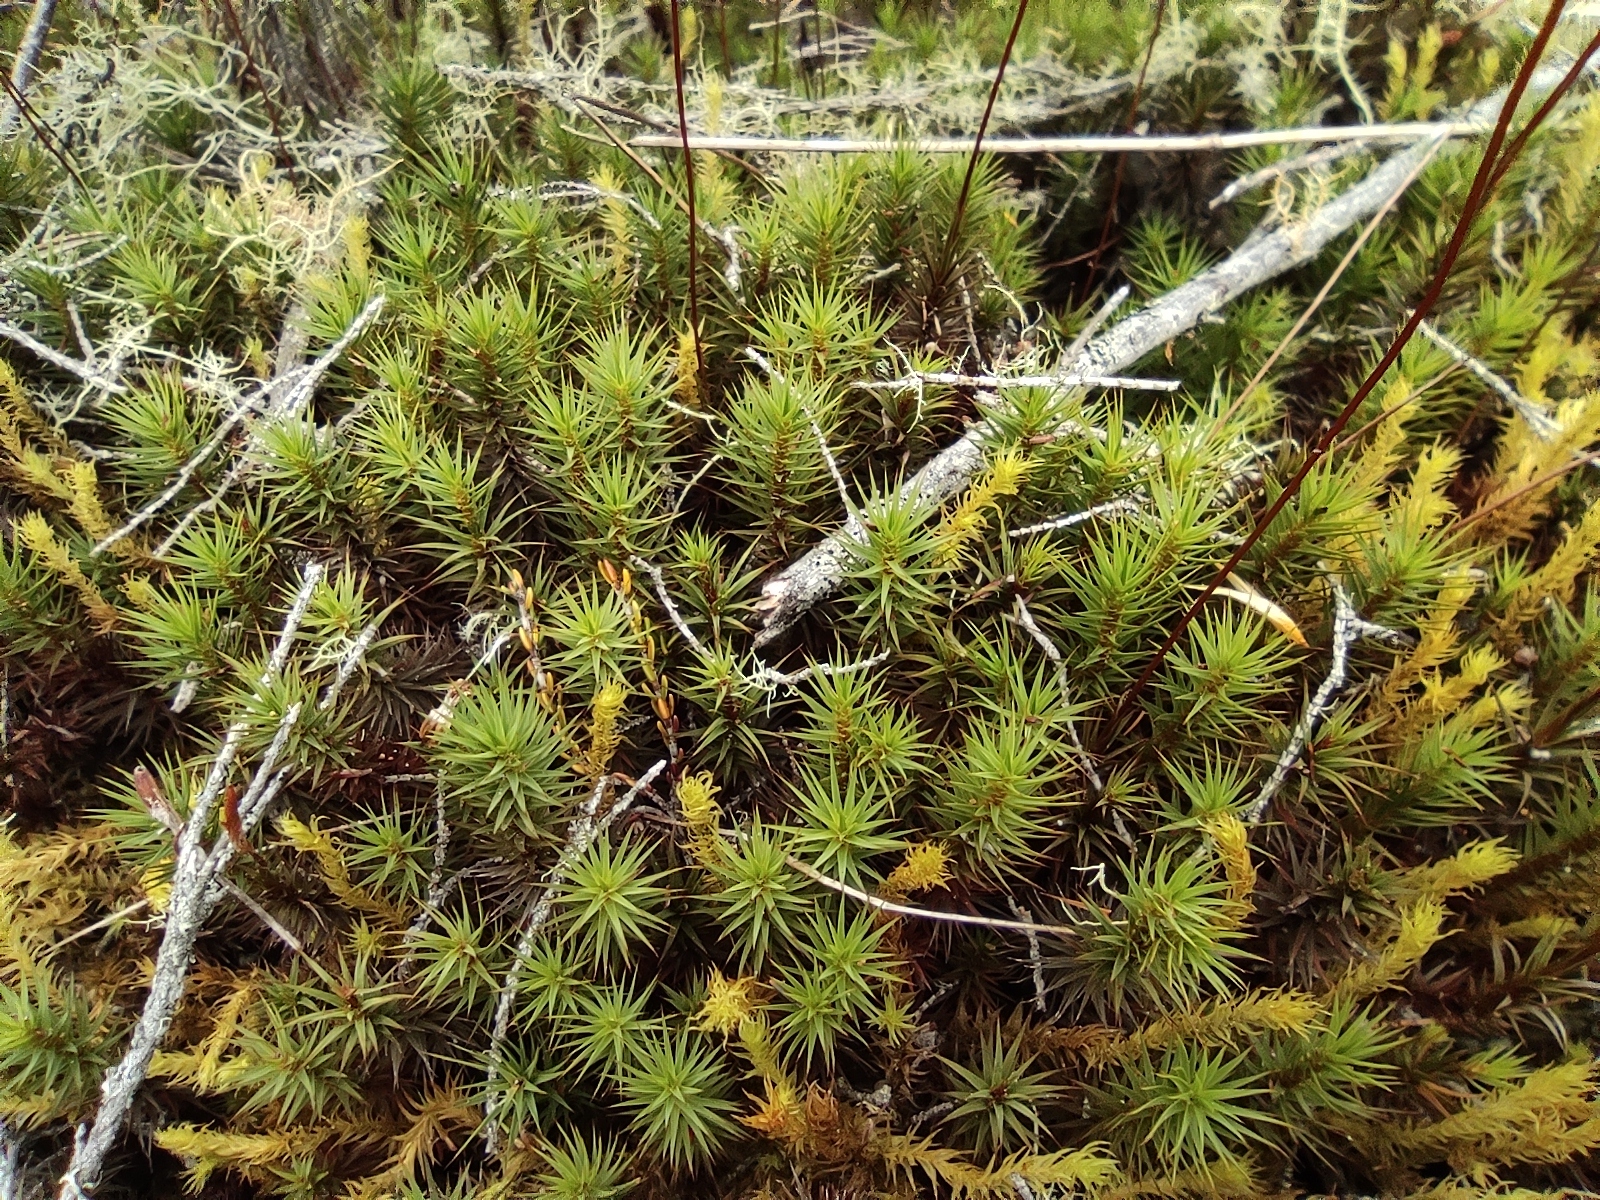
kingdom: Plantae
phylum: Bryophyta
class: Polytrichopsida
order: Polytrichales
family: Polytrichaceae
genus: Polytrichum
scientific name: Polytrichum subpilosum
